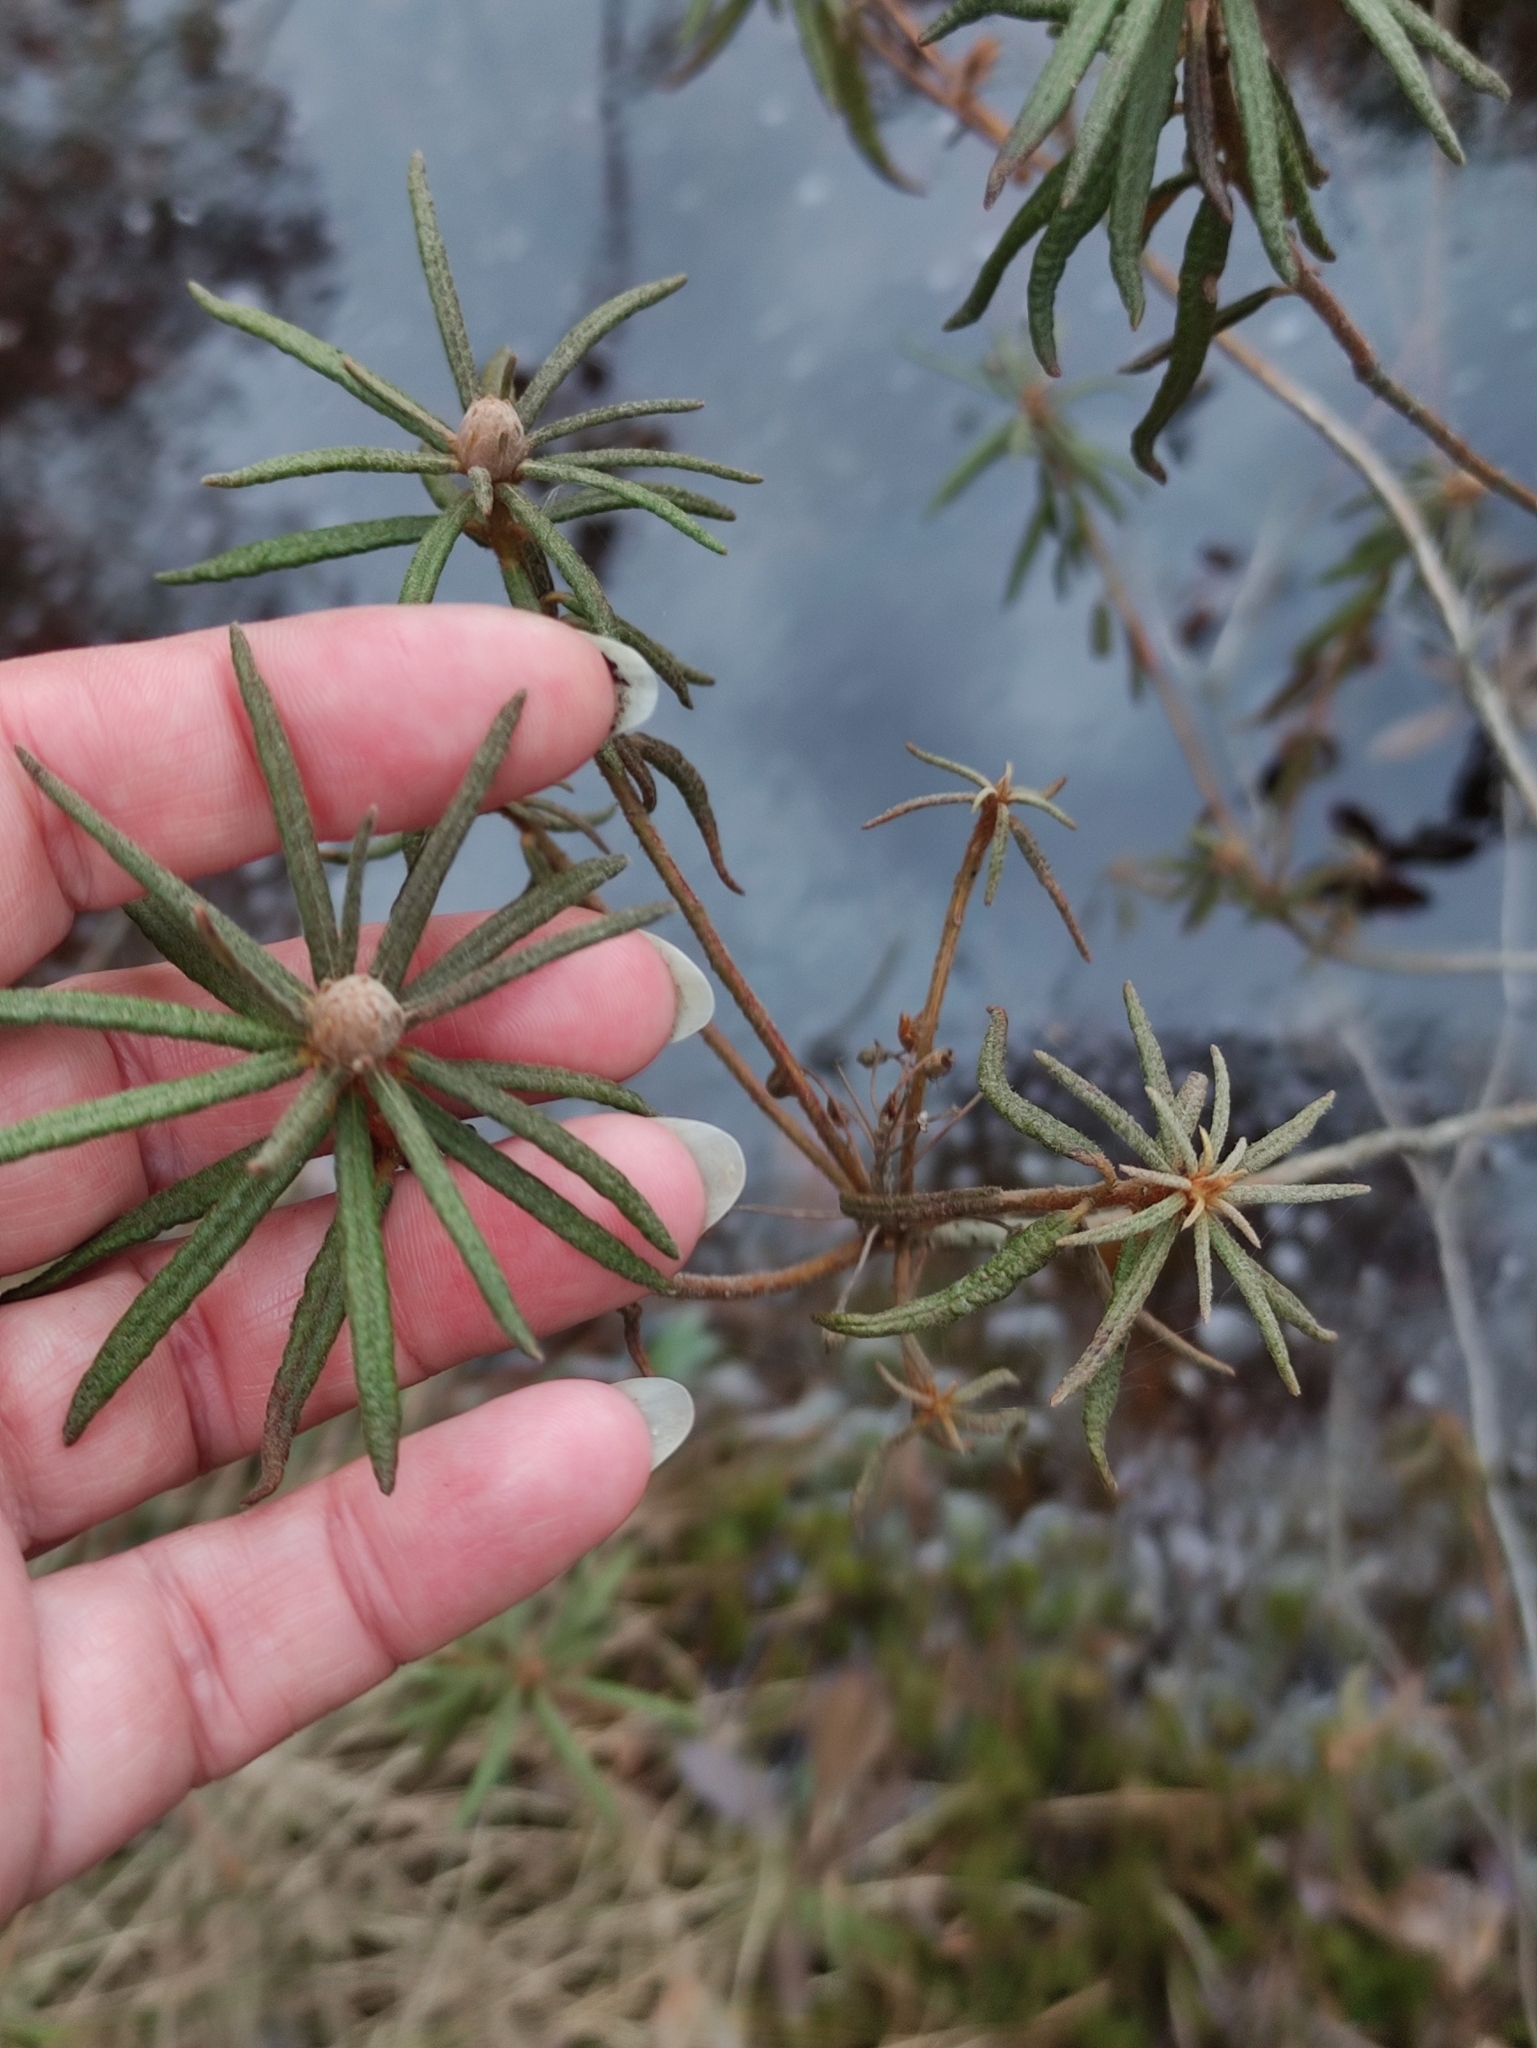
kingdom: Plantae
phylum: Tracheophyta
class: Magnoliopsida
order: Ericales
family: Ericaceae
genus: Rhododendron
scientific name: Rhododendron tomentosum
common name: Marsh labrador tea
